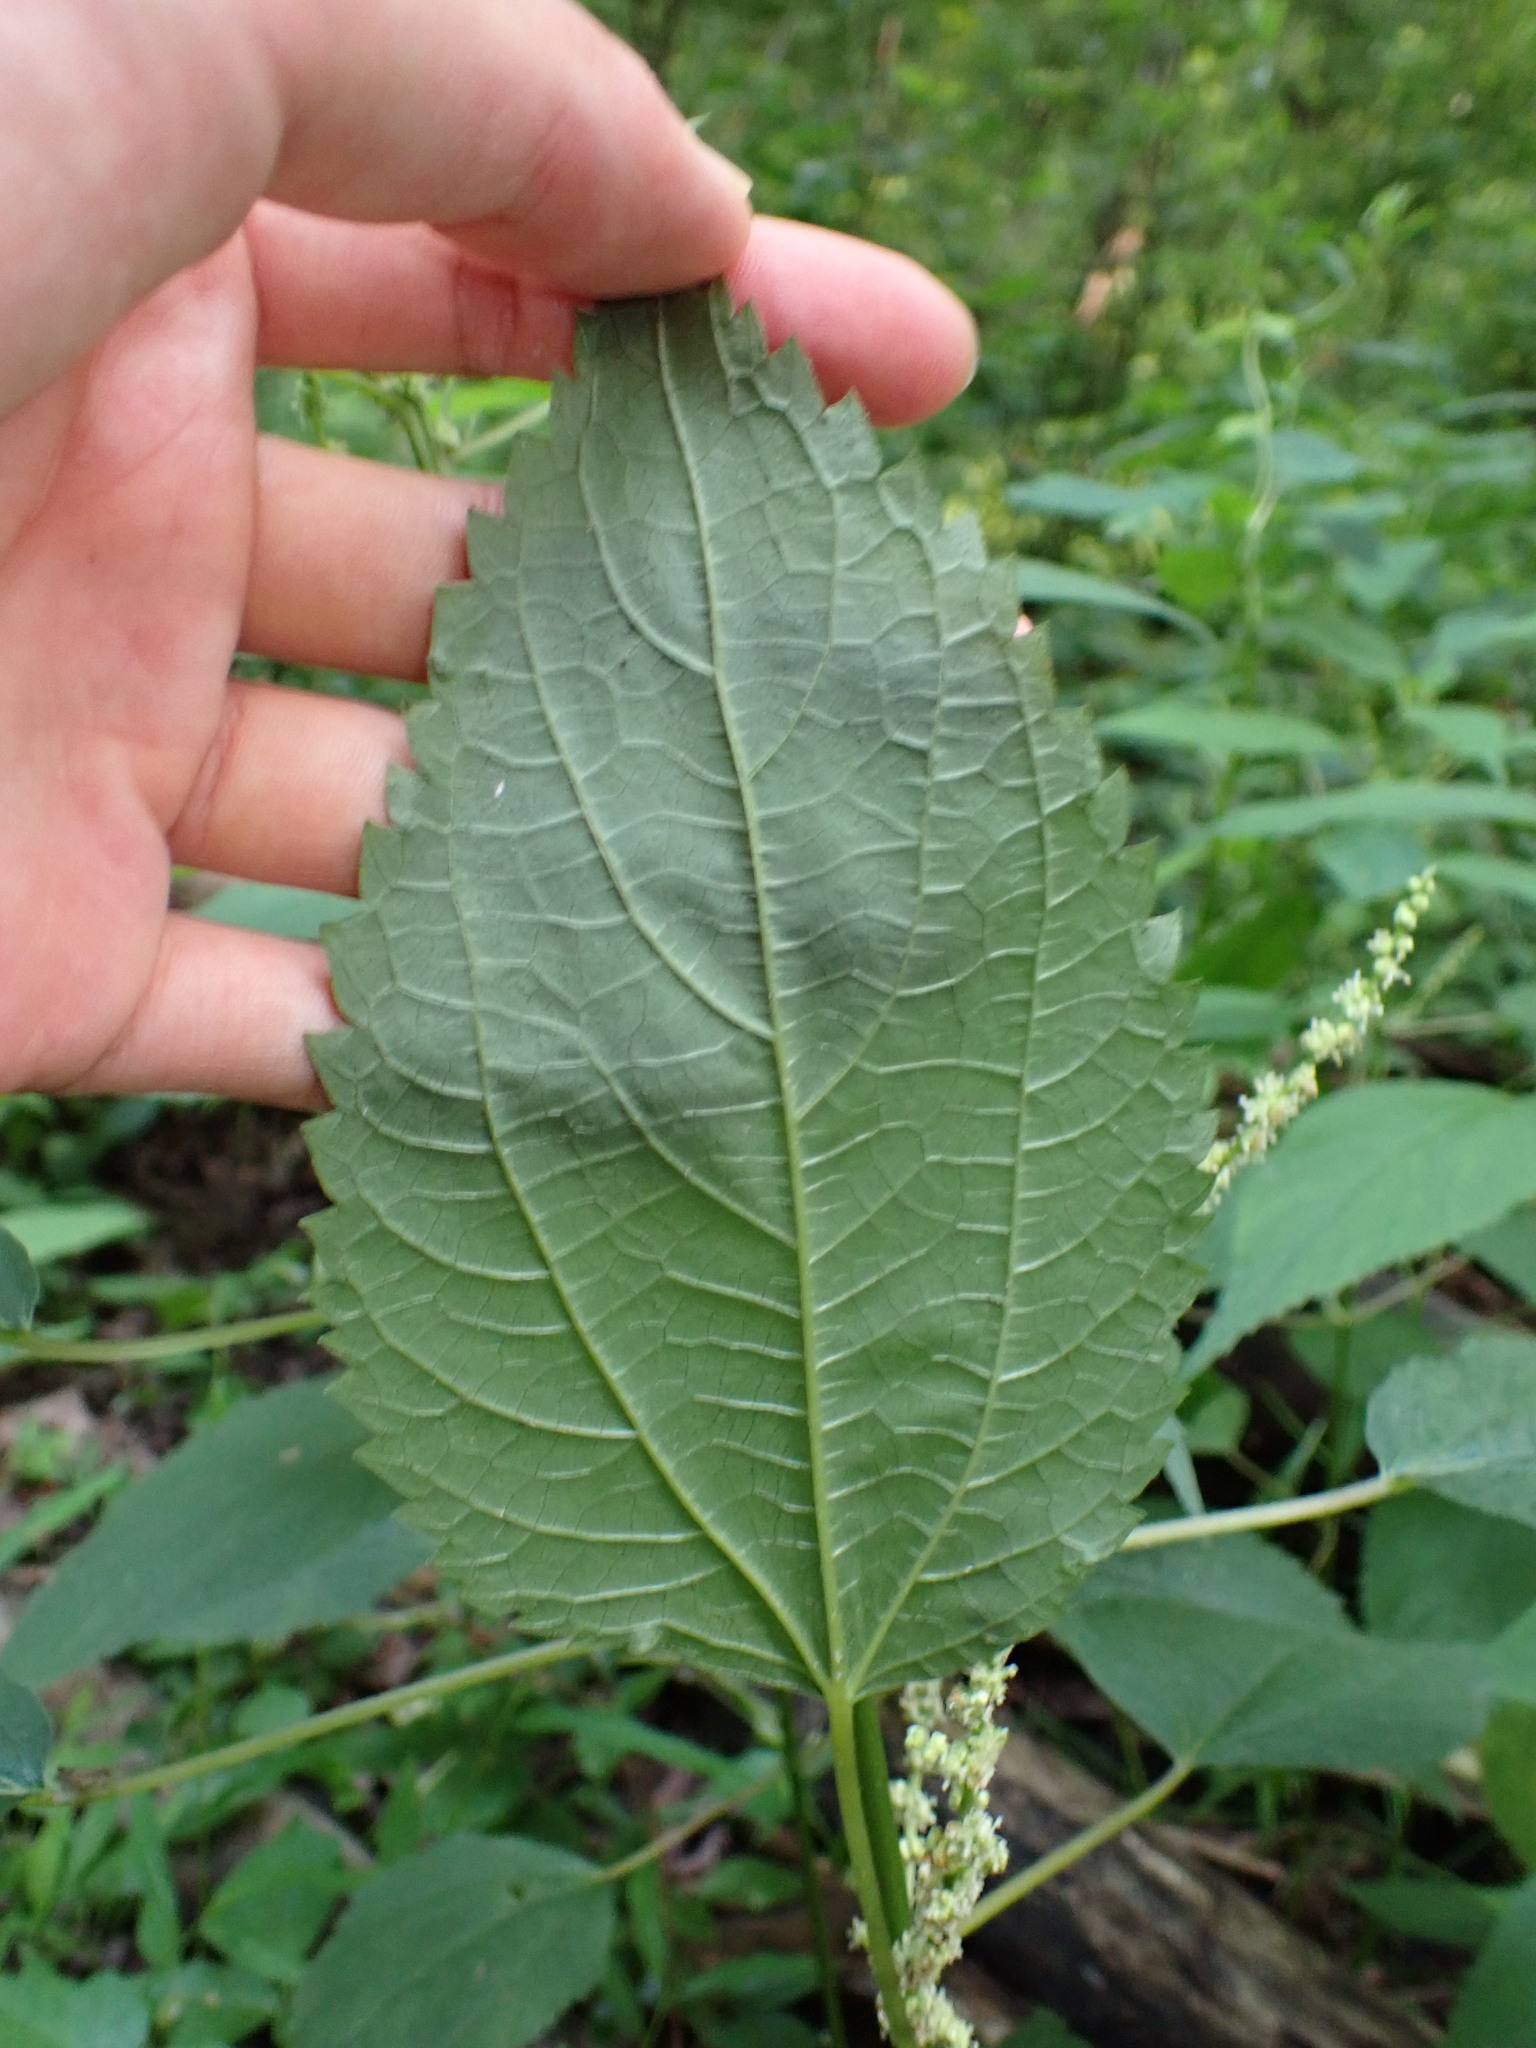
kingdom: Plantae
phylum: Tracheophyta
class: Magnoliopsida
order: Rosales
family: Urticaceae
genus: Boehmeria
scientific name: Boehmeria cylindrica
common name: Bog-hemp
